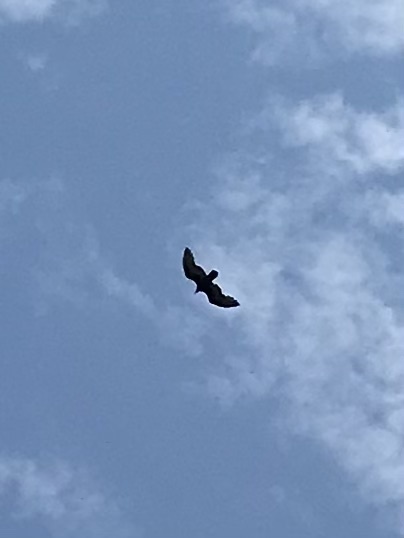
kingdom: Animalia
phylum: Chordata
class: Aves
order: Accipitriformes
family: Accipitridae
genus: Buteo
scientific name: Buteo lineatus
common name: Red-shouldered hawk
